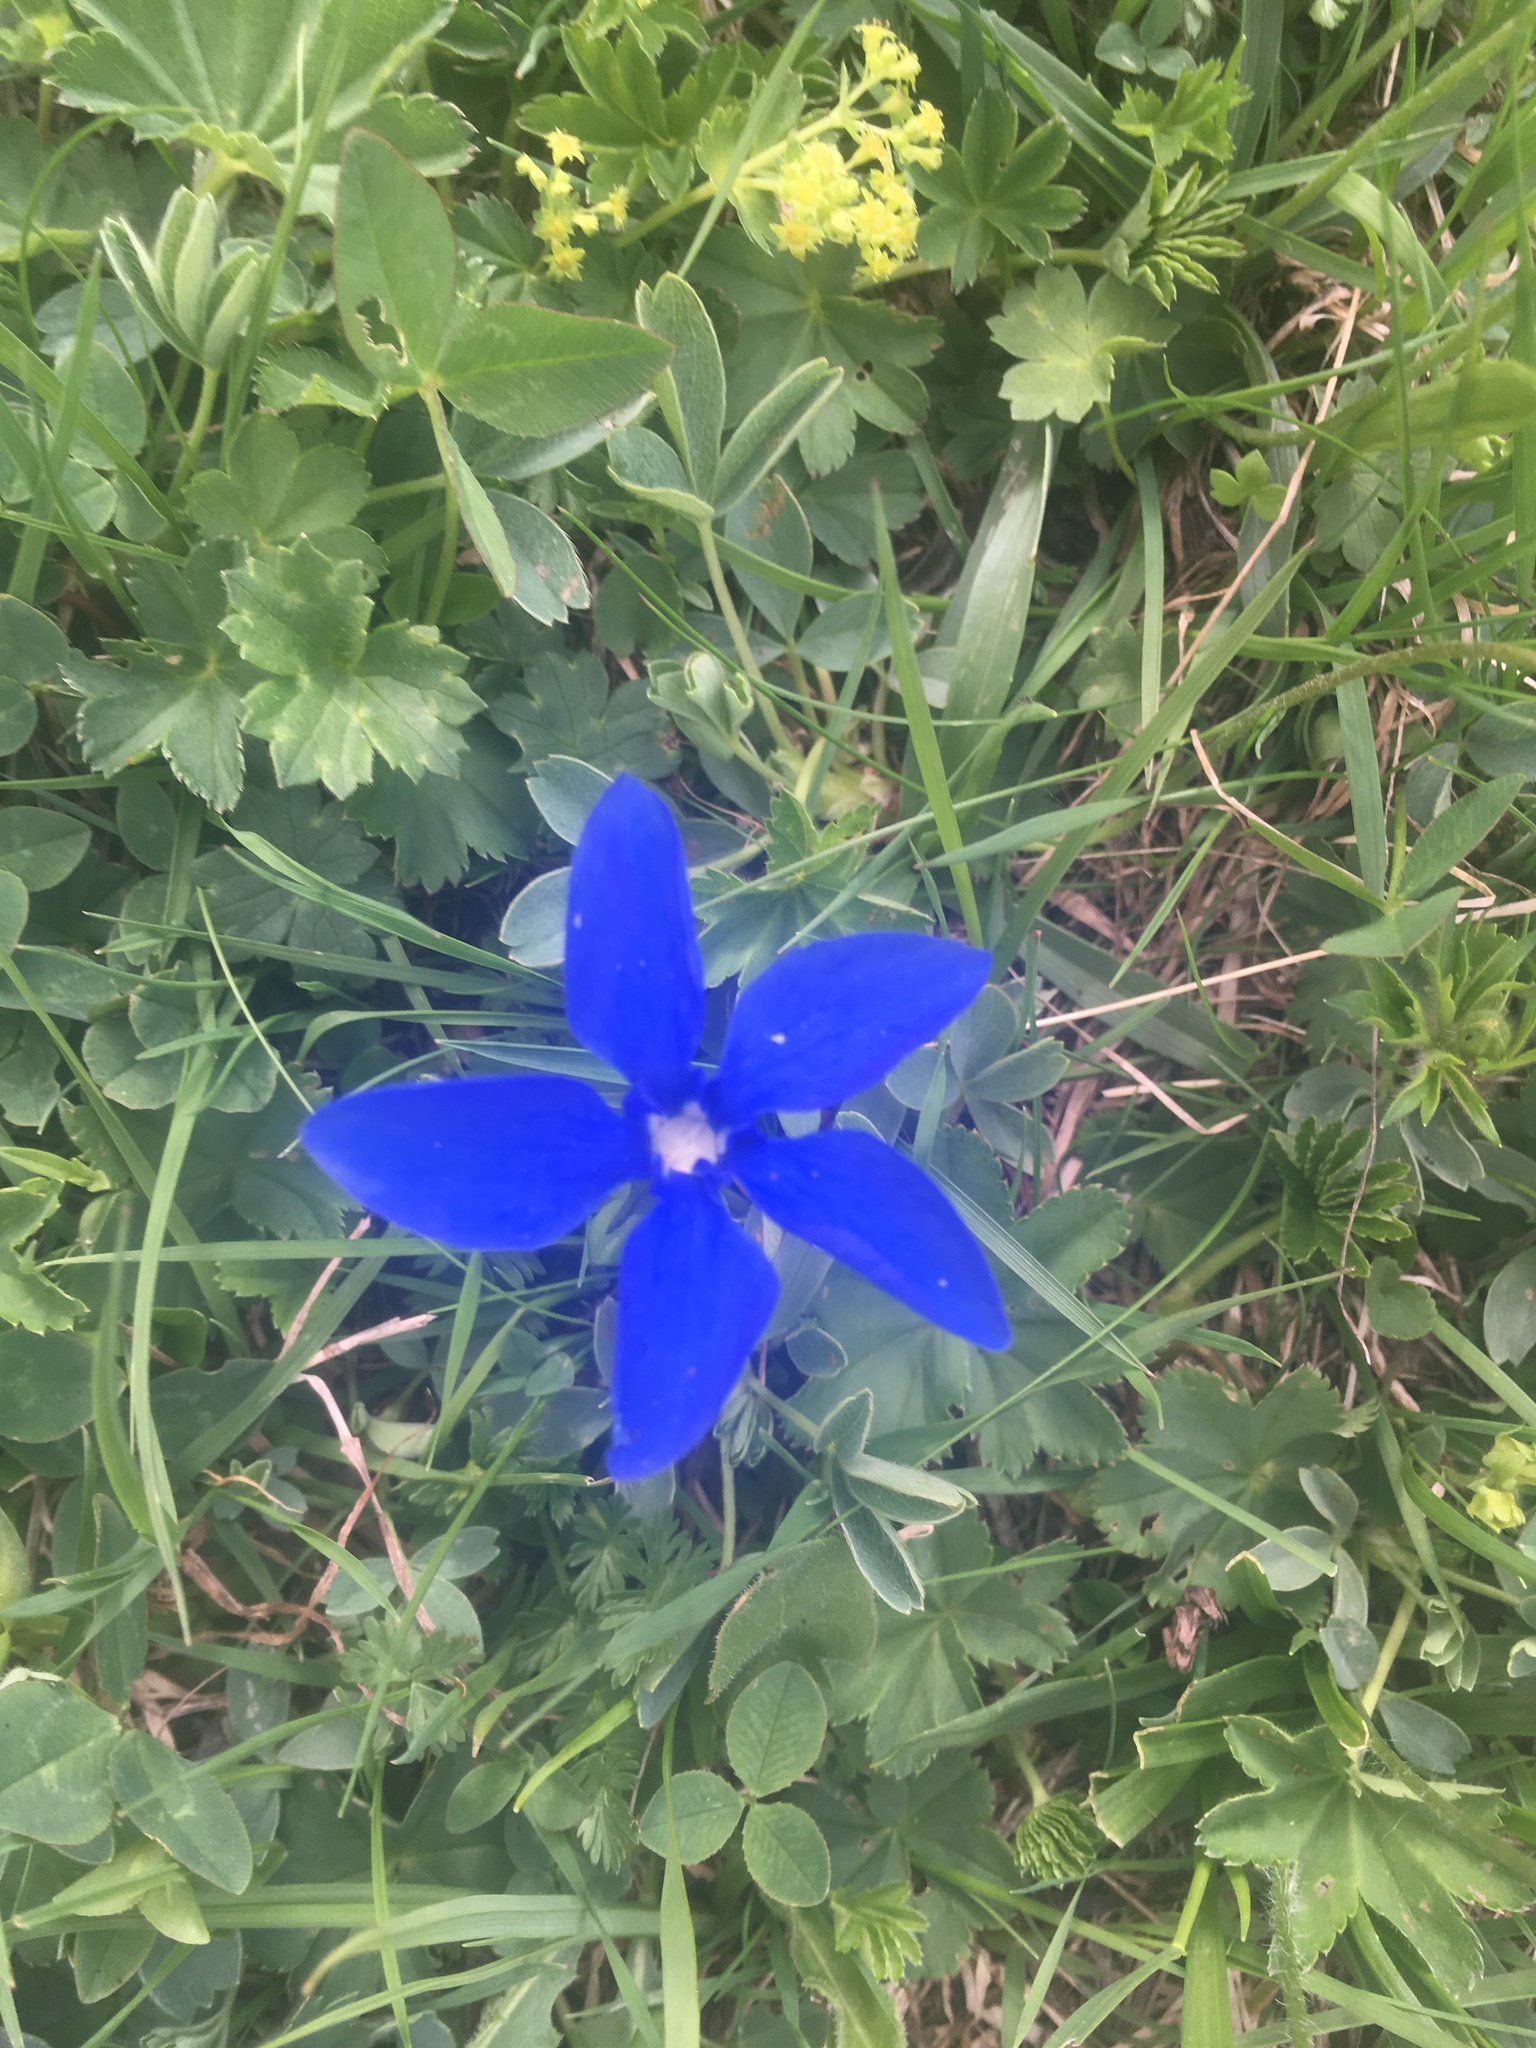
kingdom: Plantae
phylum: Tracheophyta
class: Magnoliopsida
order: Gentianales
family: Gentianaceae
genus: Gentiana
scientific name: Gentiana verna
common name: Spring gentian
